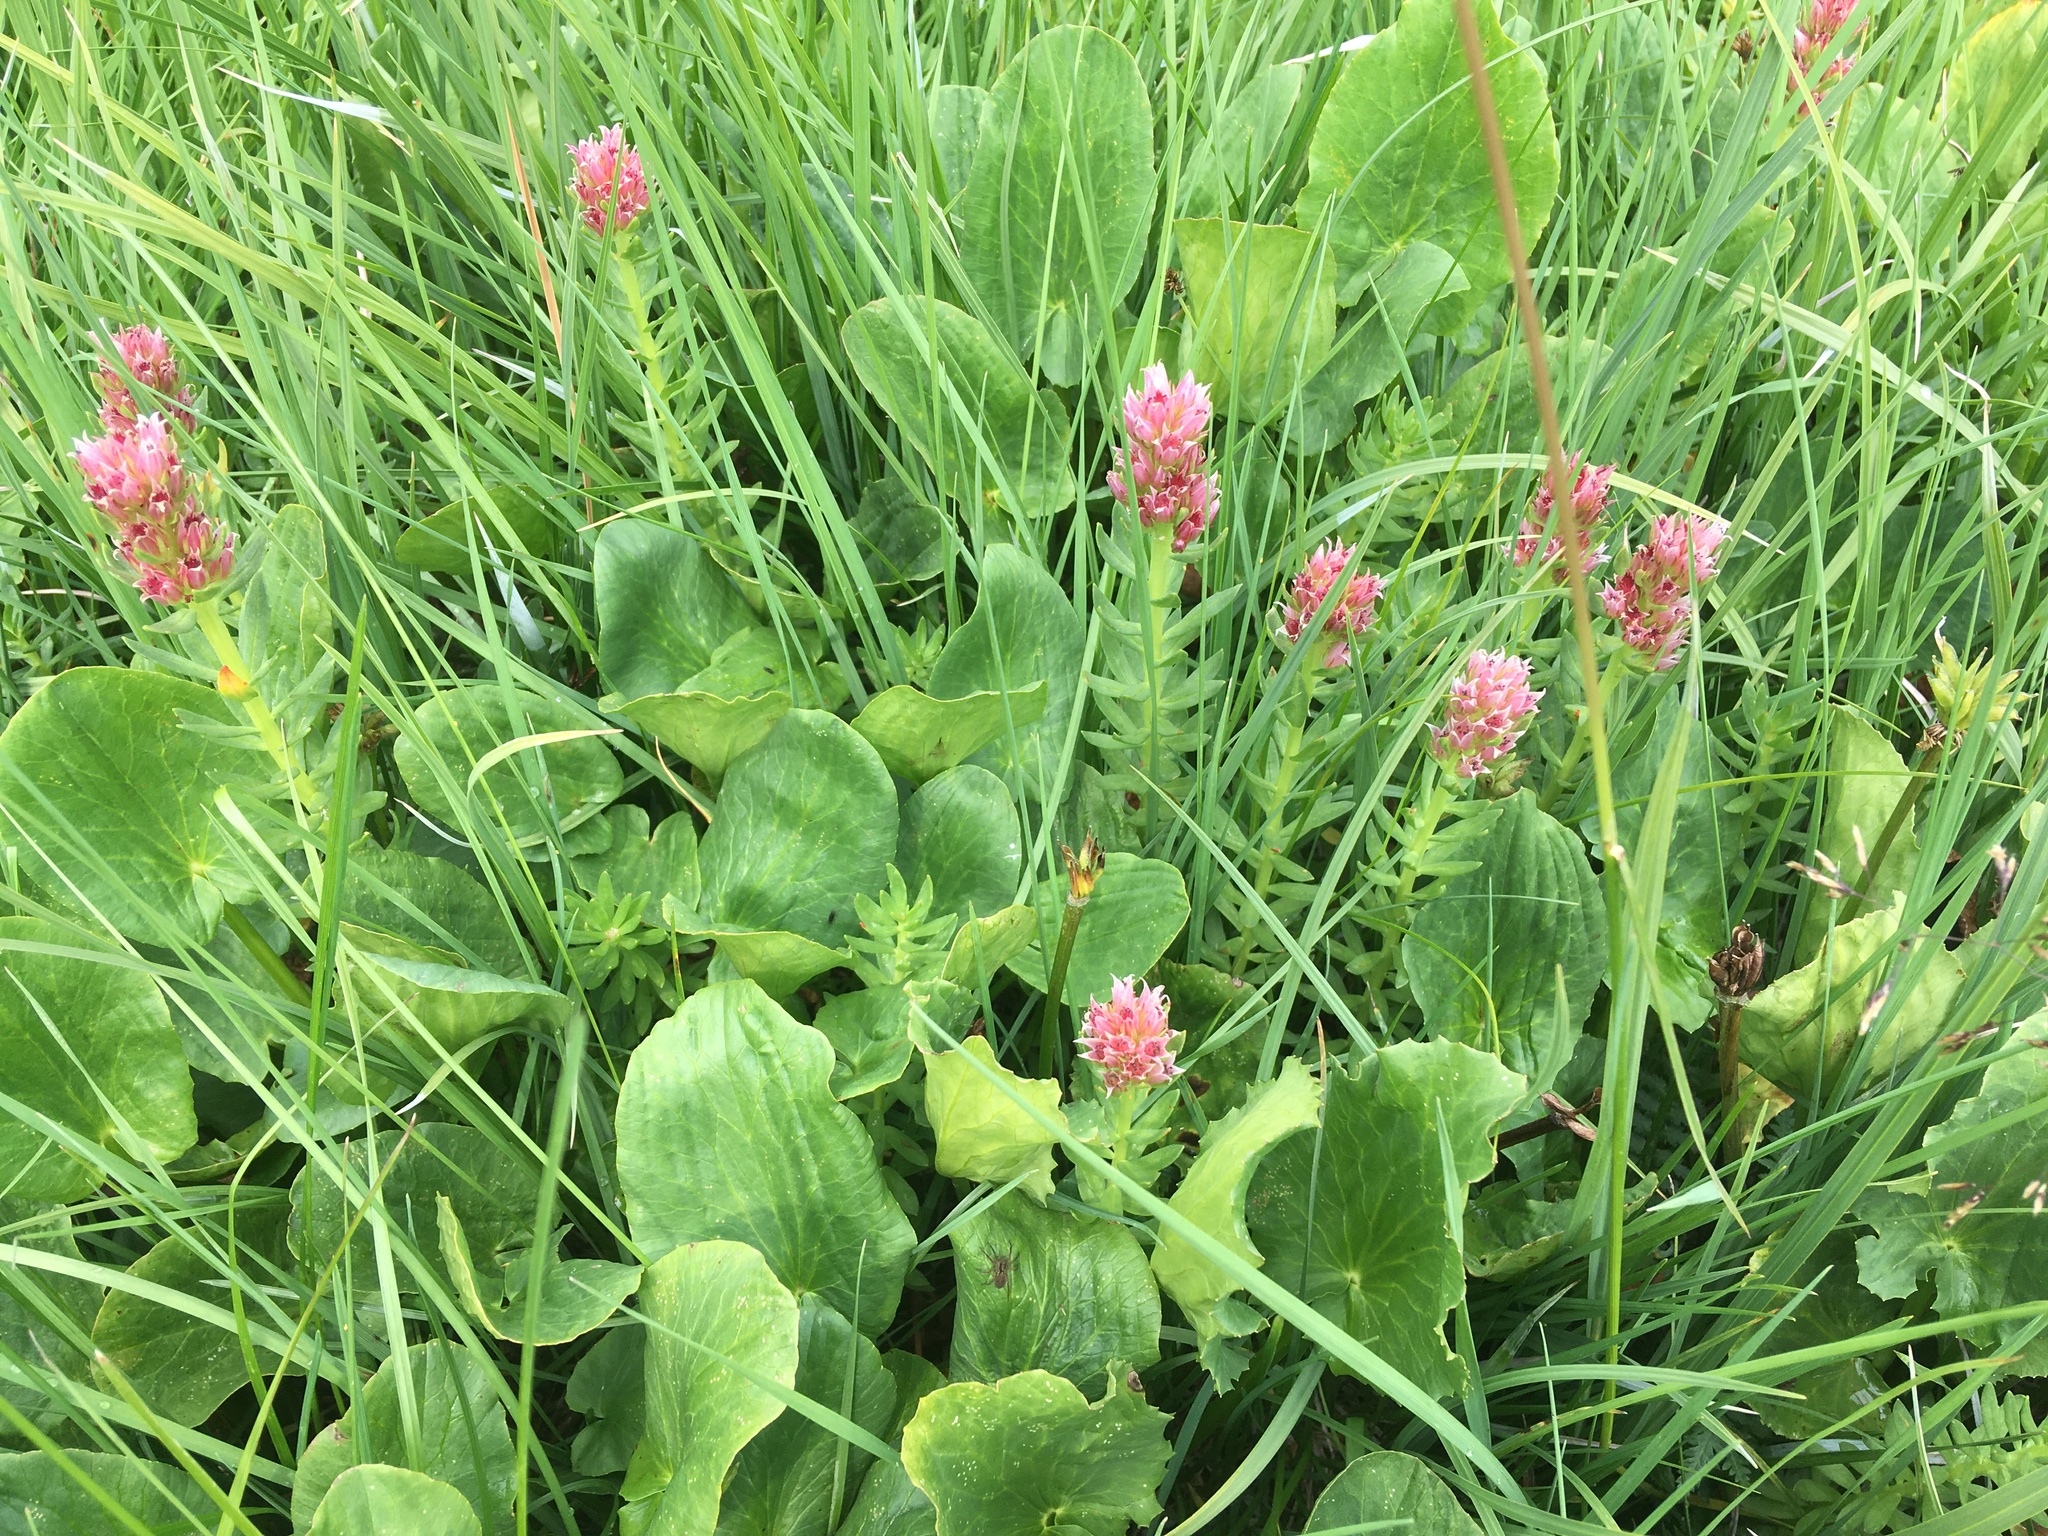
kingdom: Plantae
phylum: Tracheophyta
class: Magnoliopsida
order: Saxifragales
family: Crassulaceae
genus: Rhodiola
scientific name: Rhodiola rhodantha
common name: Red orpine
